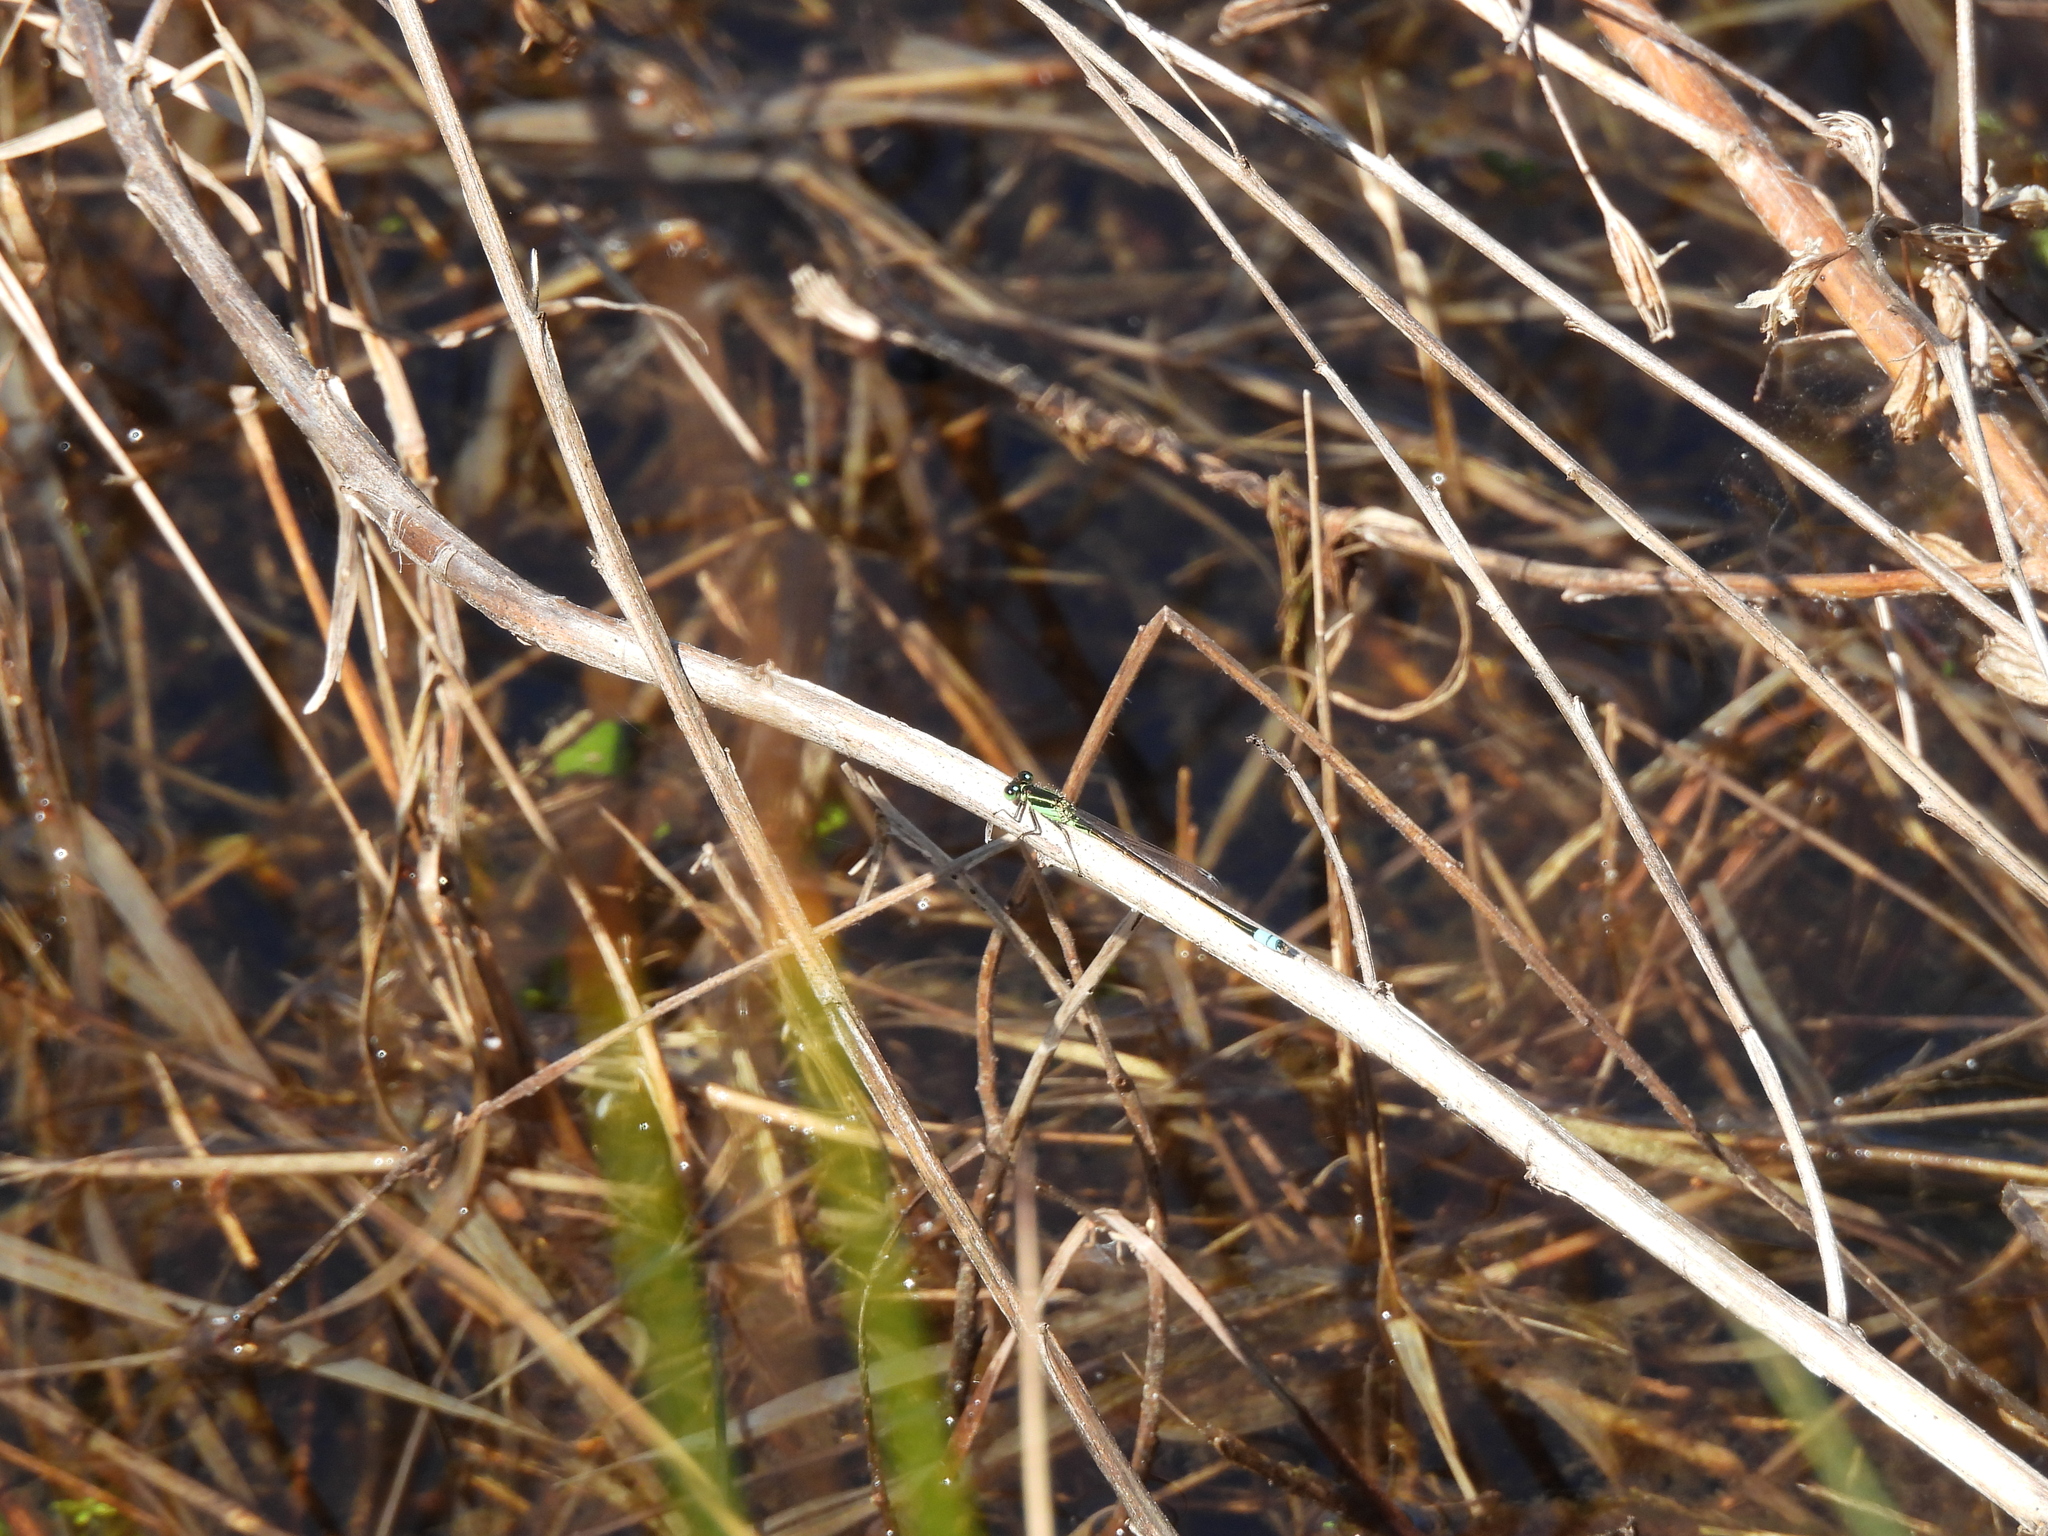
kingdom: Animalia
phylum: Arthropoda
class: Insecta
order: Odonata
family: Coenagrionidae
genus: Ischnura
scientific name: Ischnura ramburii
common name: Rambur's forktail
